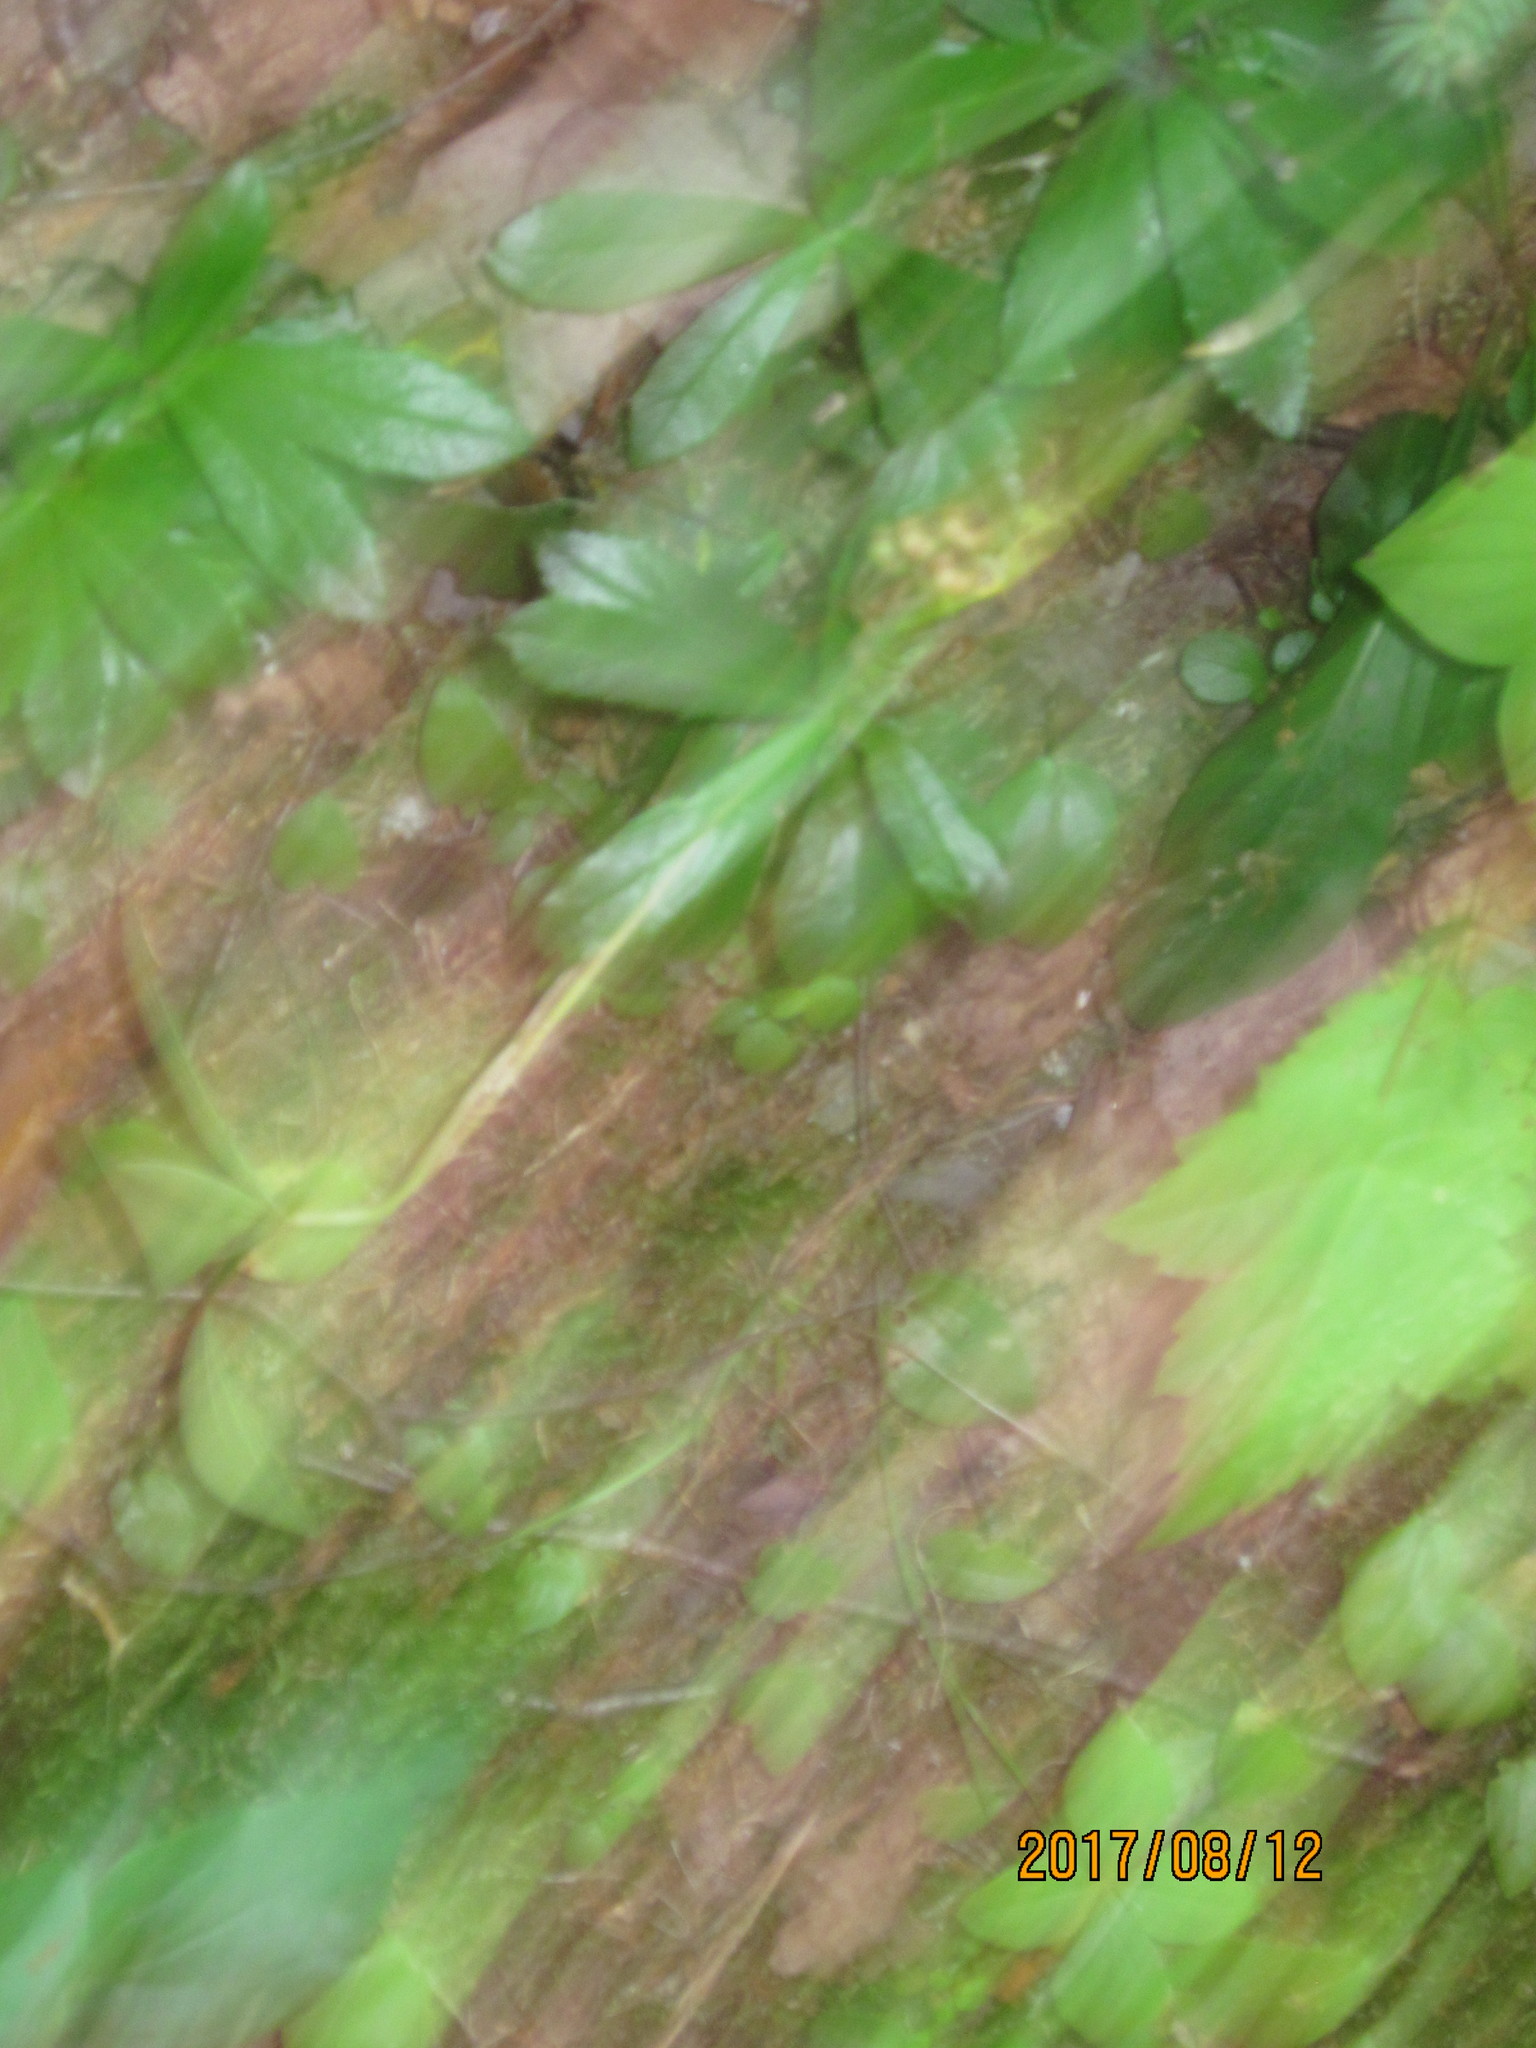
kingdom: Plantae
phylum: Tracheophyta
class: Magnoliopsida
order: Ericales
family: Ericaceae
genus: Chimaphila
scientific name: Chimaphila umbellata
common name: Pipsissewa
